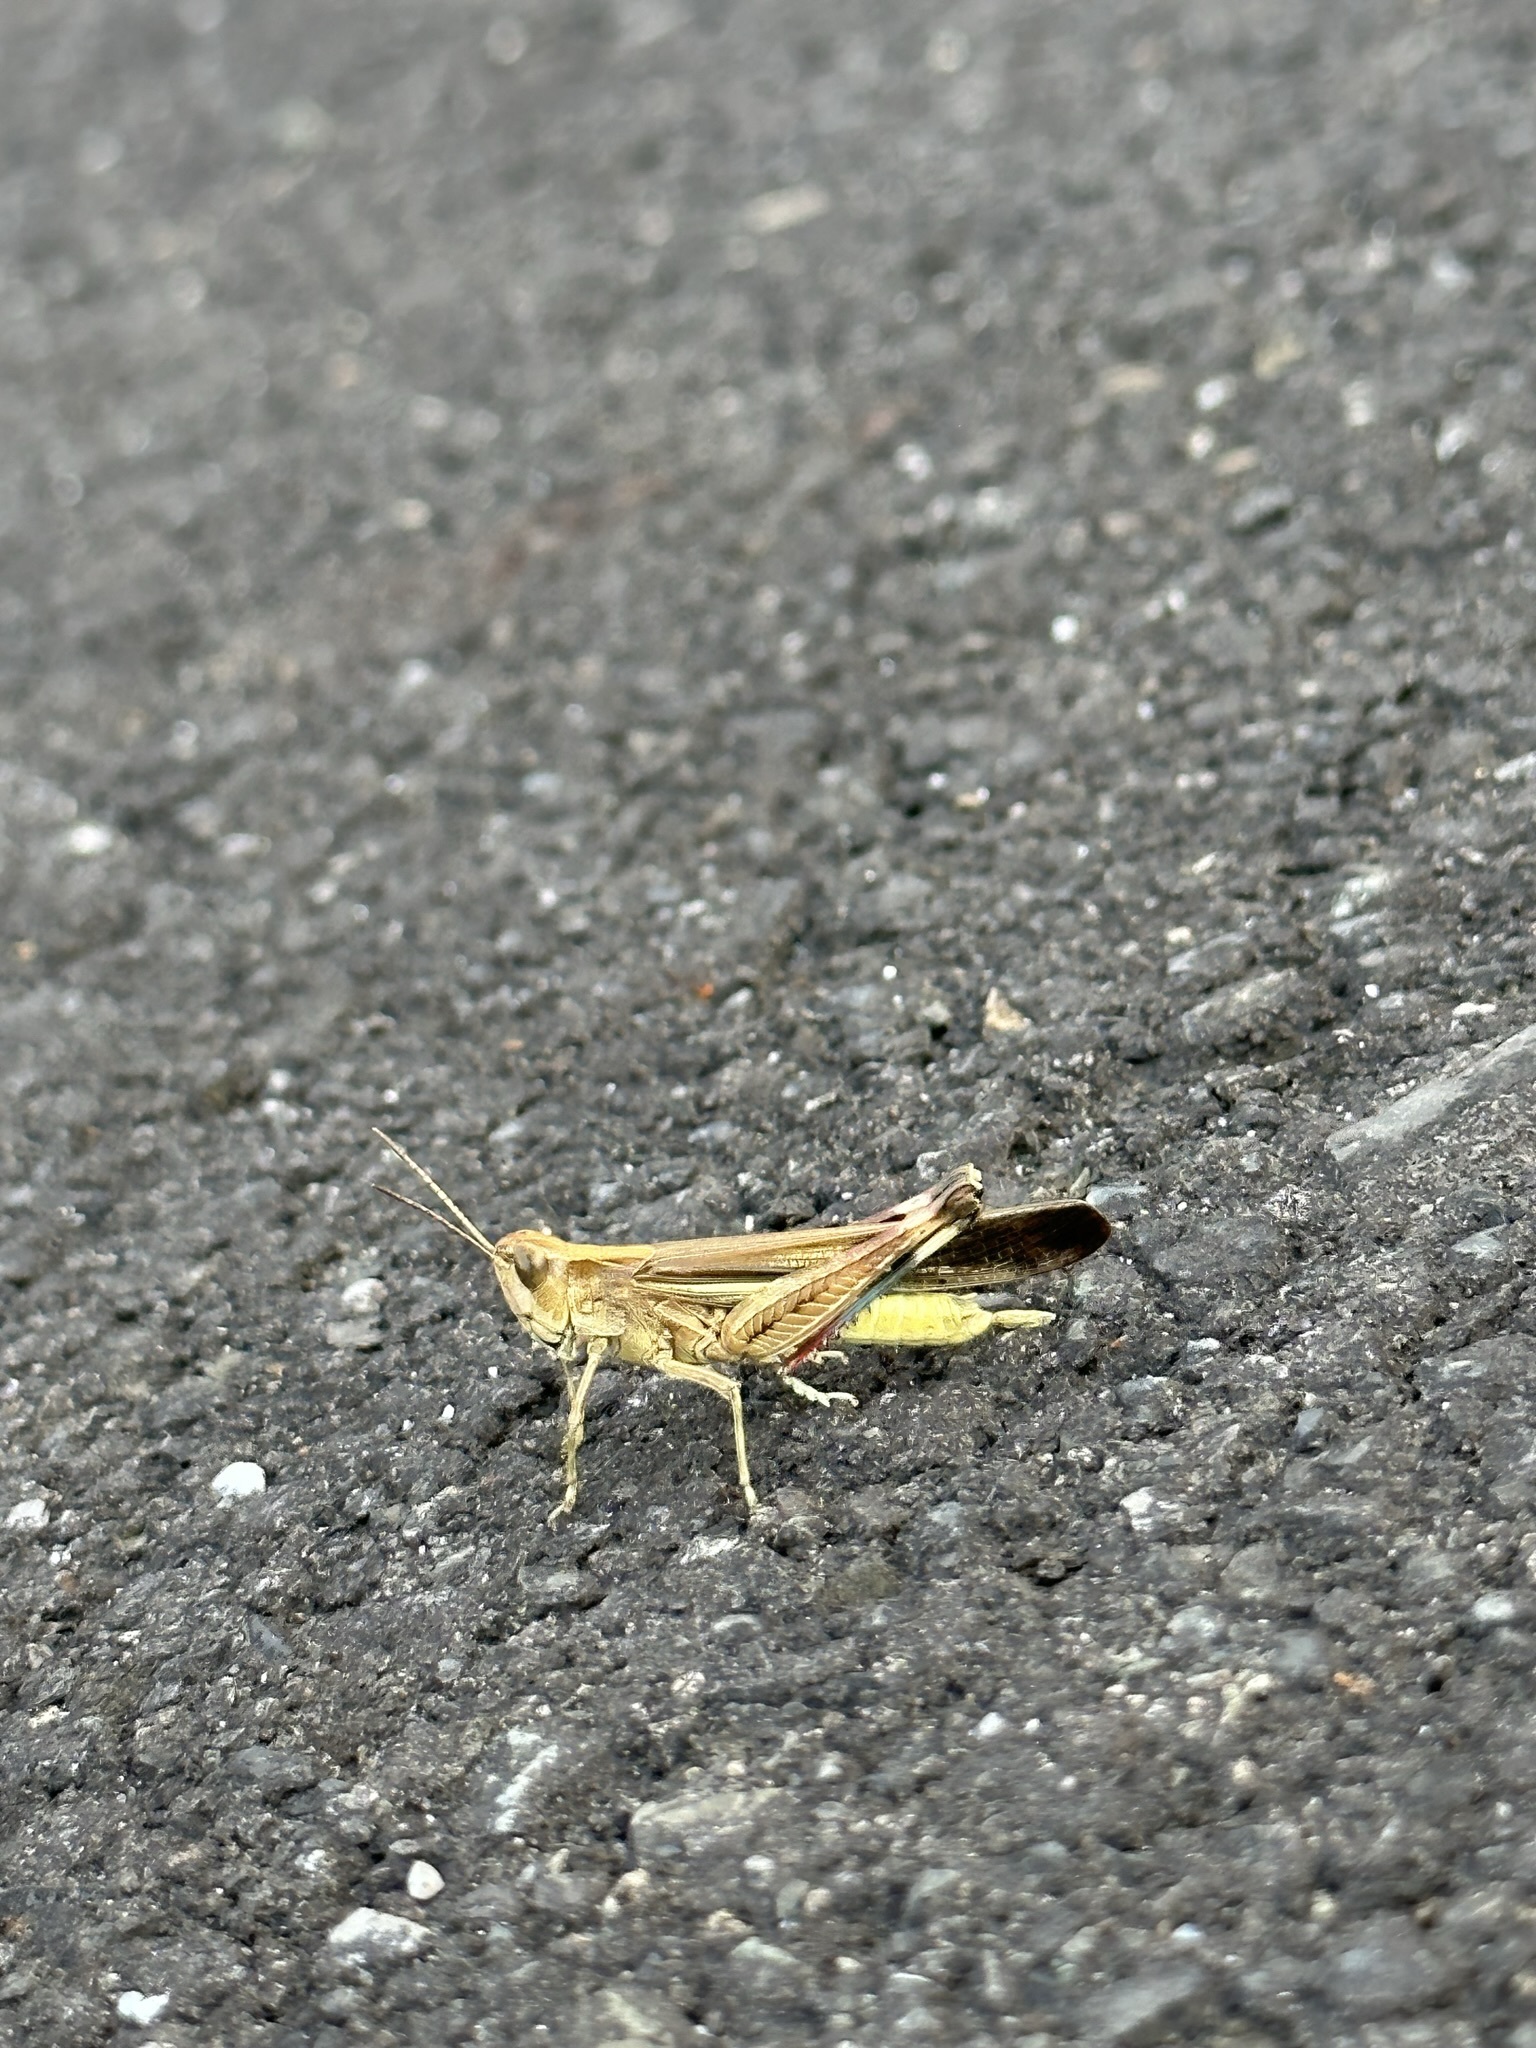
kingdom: Animalia
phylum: Arthropoda
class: Insecta
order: Orthoptera
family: Acrididae
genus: Aiolopus
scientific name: Aiolopus thalassinus
